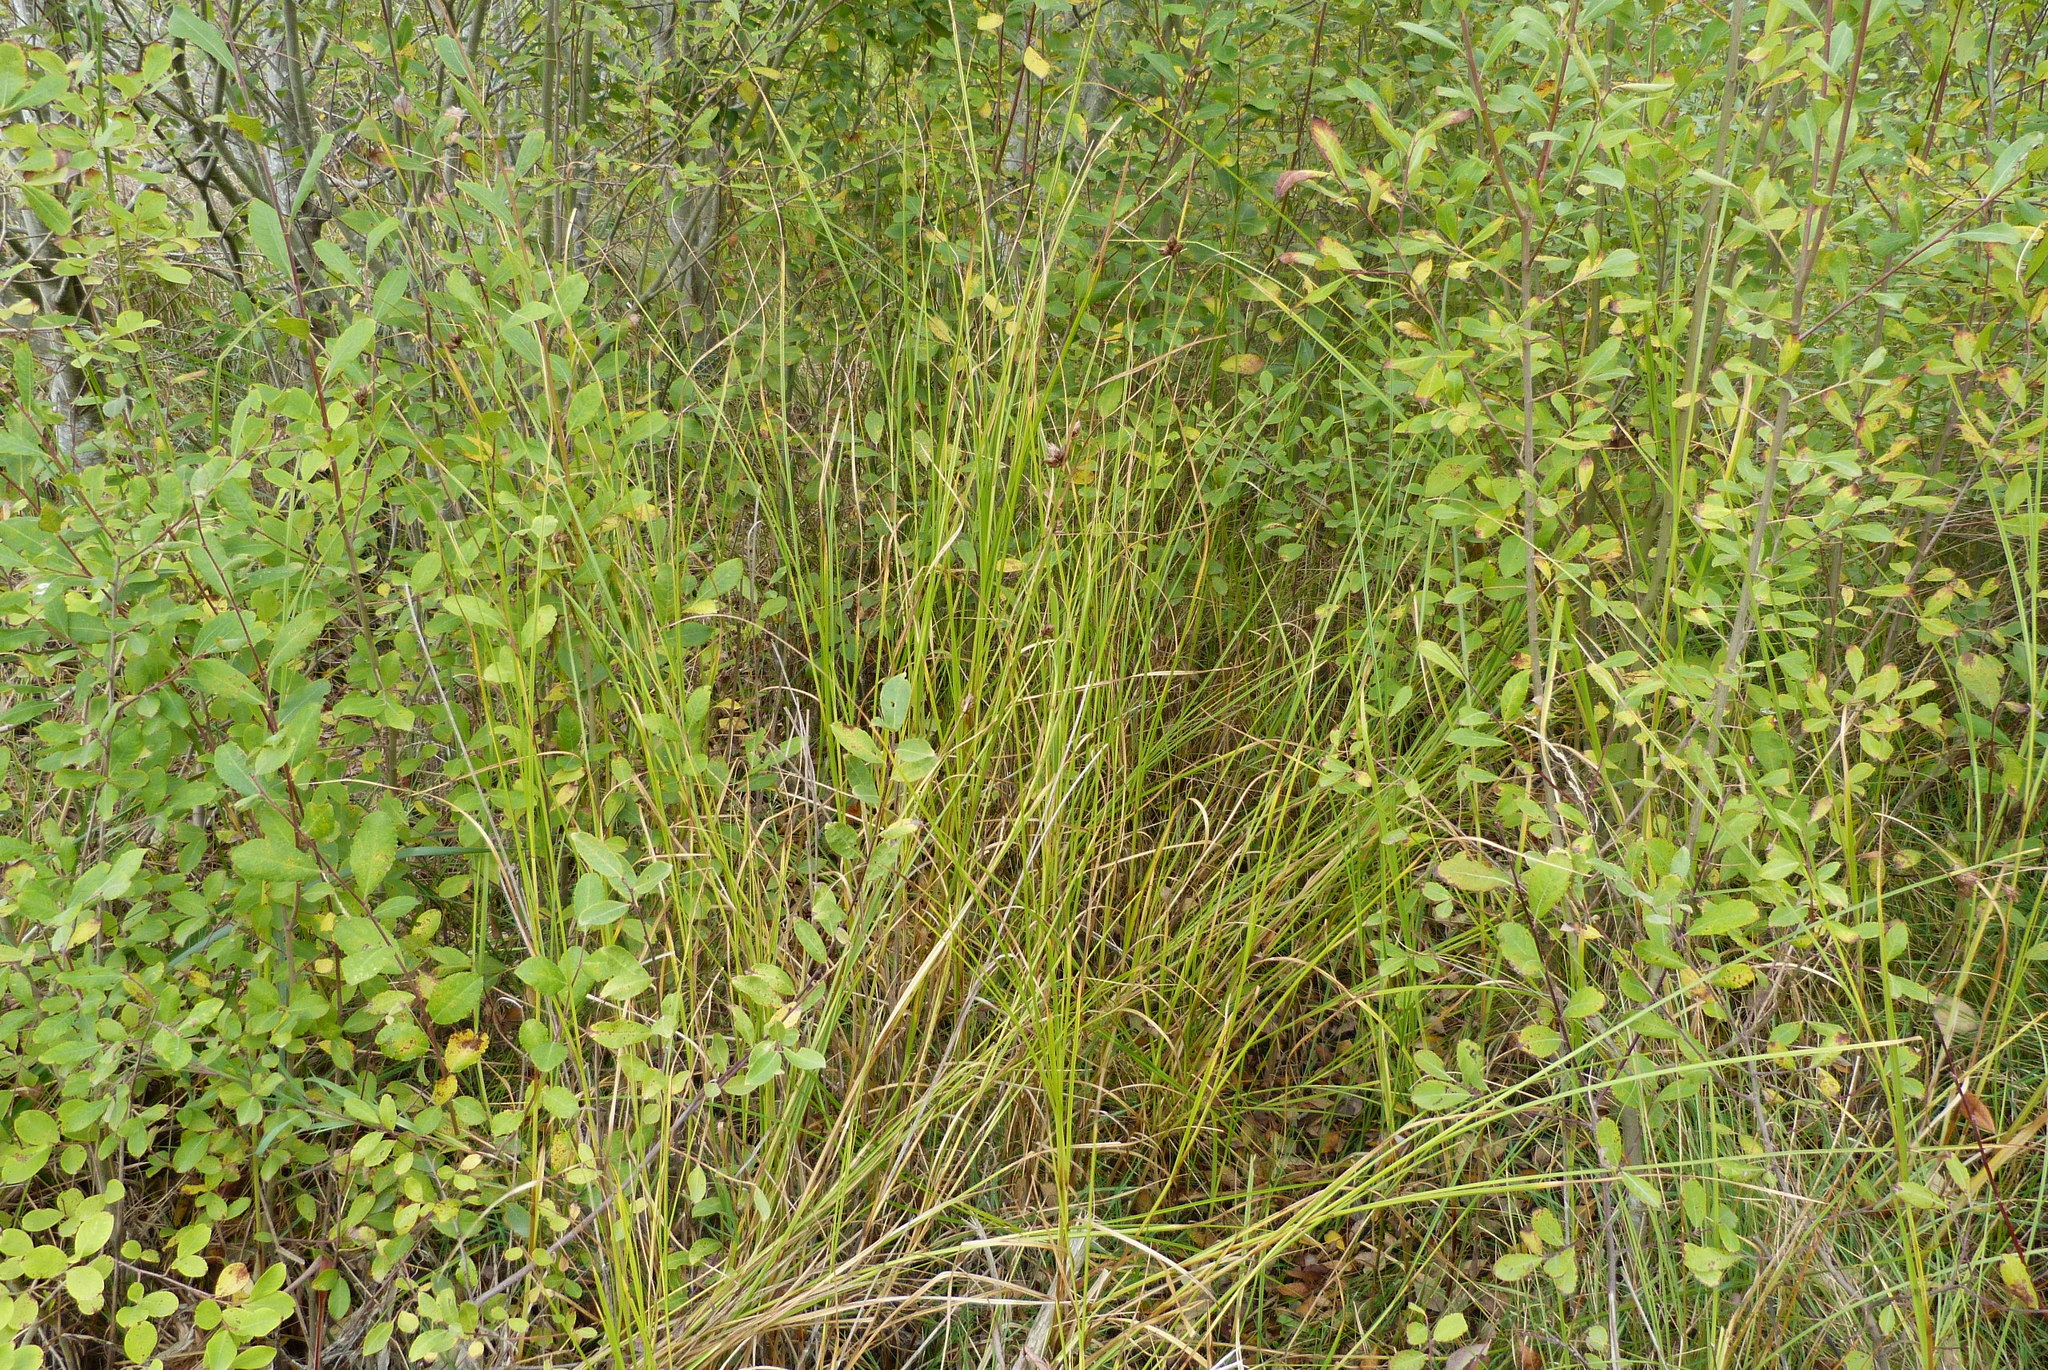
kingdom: Plantae
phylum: Tracheophyta
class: Liliopsida
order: Poales
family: Cyperaceae
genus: Bolboschoenus
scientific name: Bolboschoenus caldwellii
